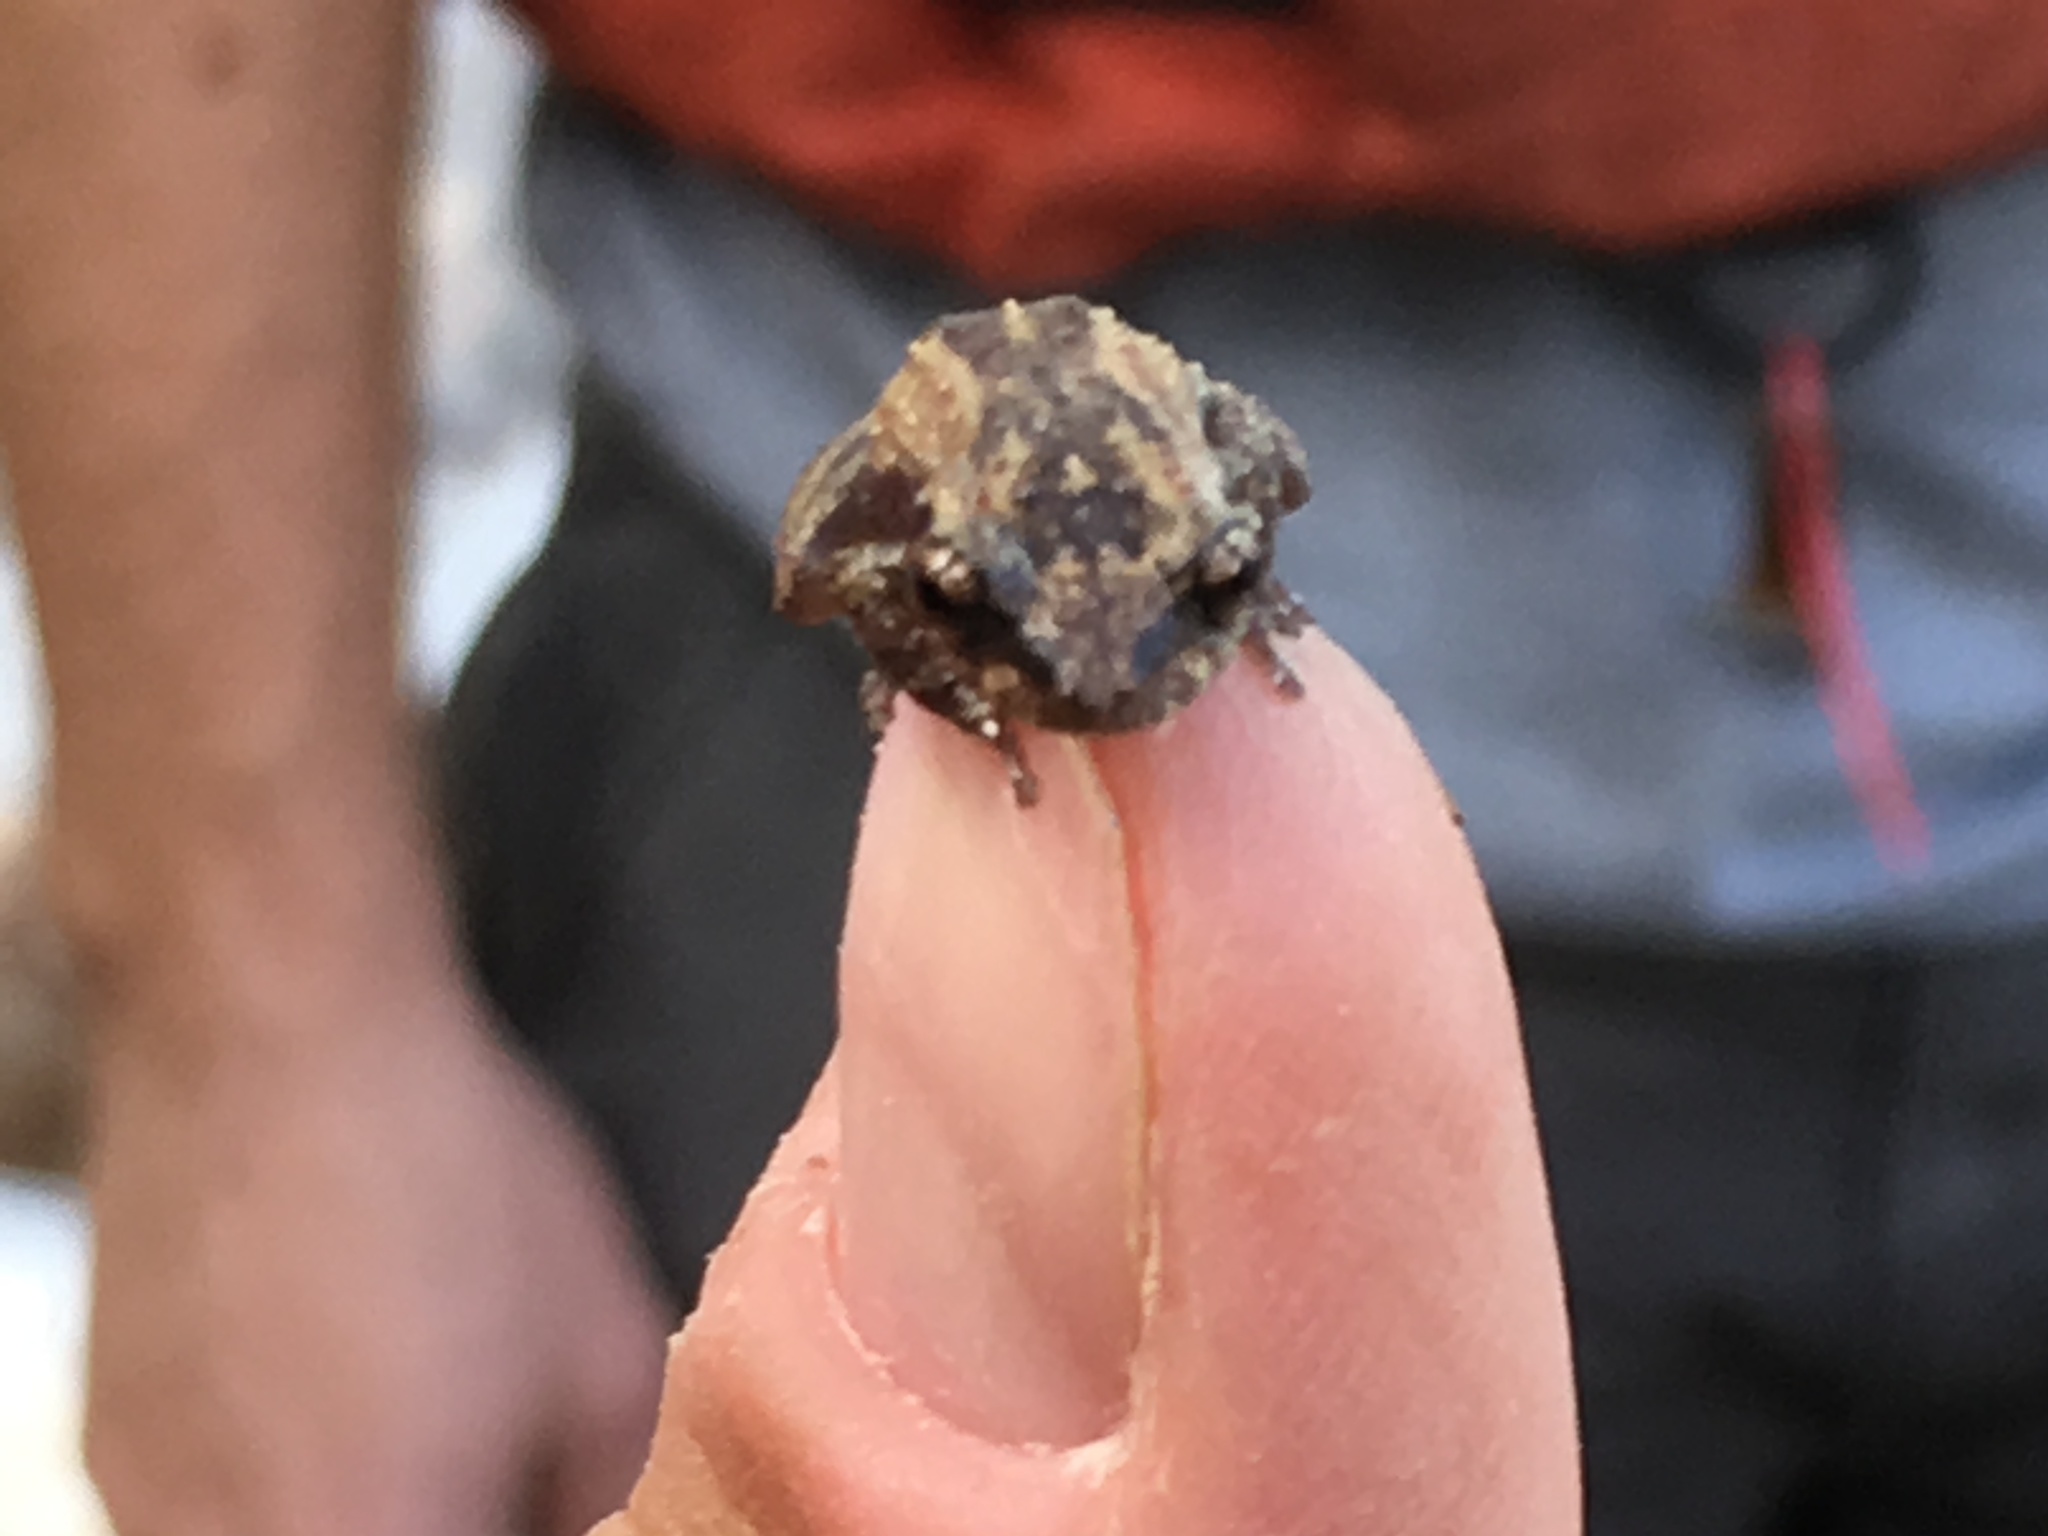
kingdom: Animalia
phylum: Chordata
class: Amphibia
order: Anura
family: Eleutherodactylidae
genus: Eleutherodactylus
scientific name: Eleutherodactylus cochranae
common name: Whistling coqui
